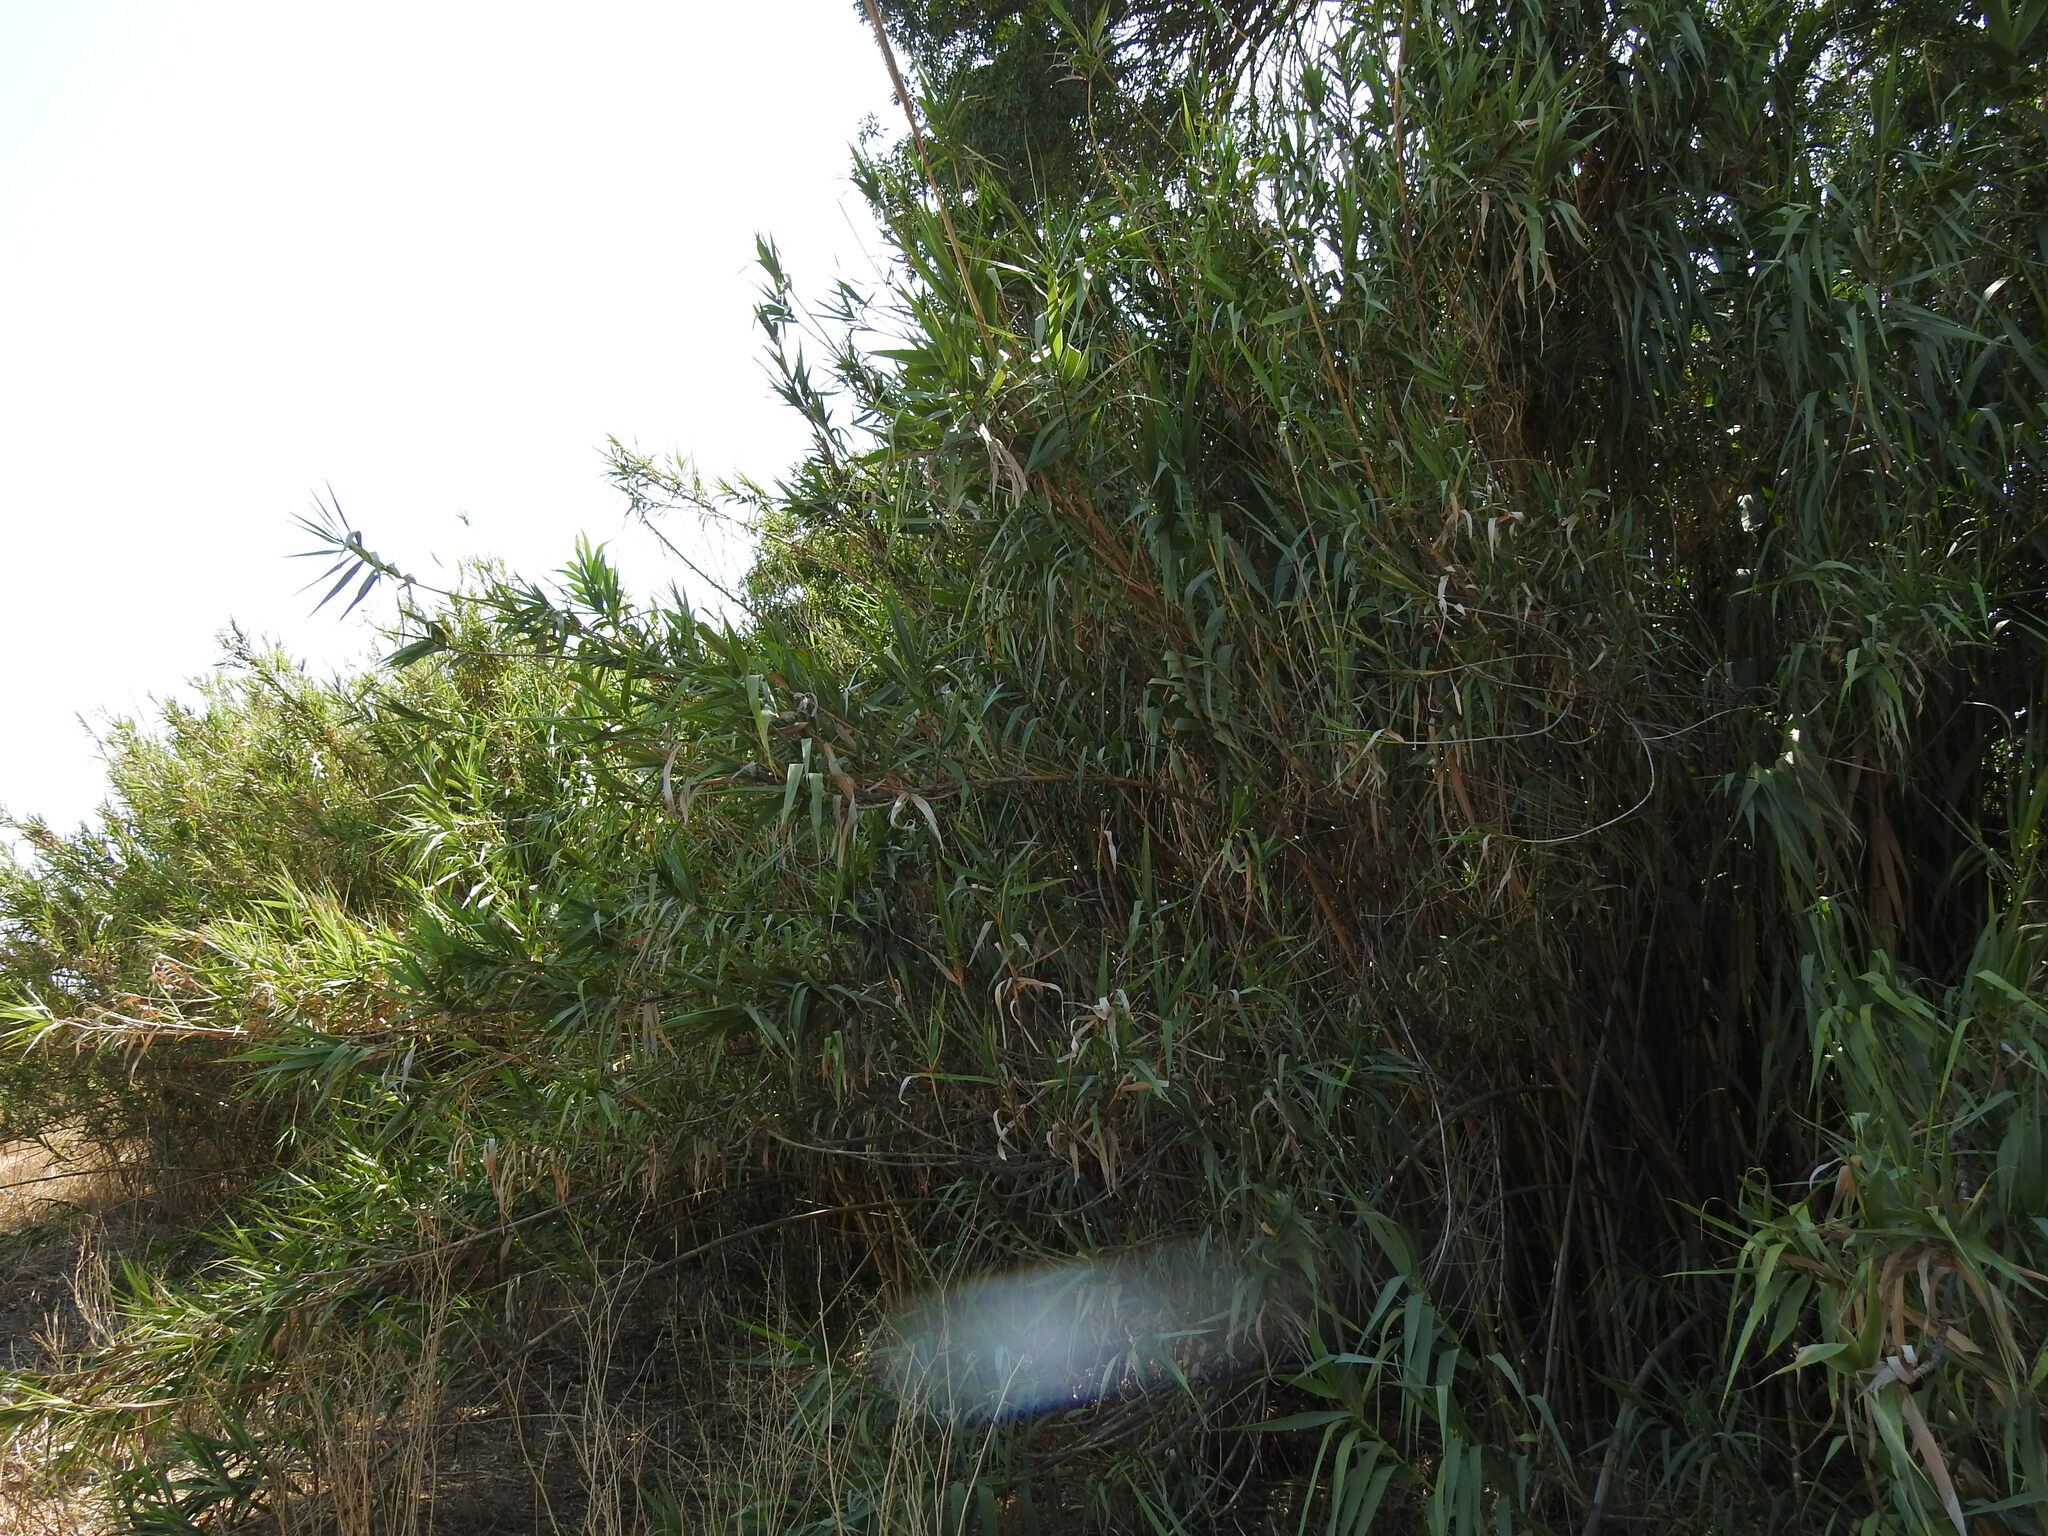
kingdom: Plantae
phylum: Tracheophyta
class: Liliopsida
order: Poales
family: Poaceae
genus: Arundo
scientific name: Arundo donax
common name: Giant reed
